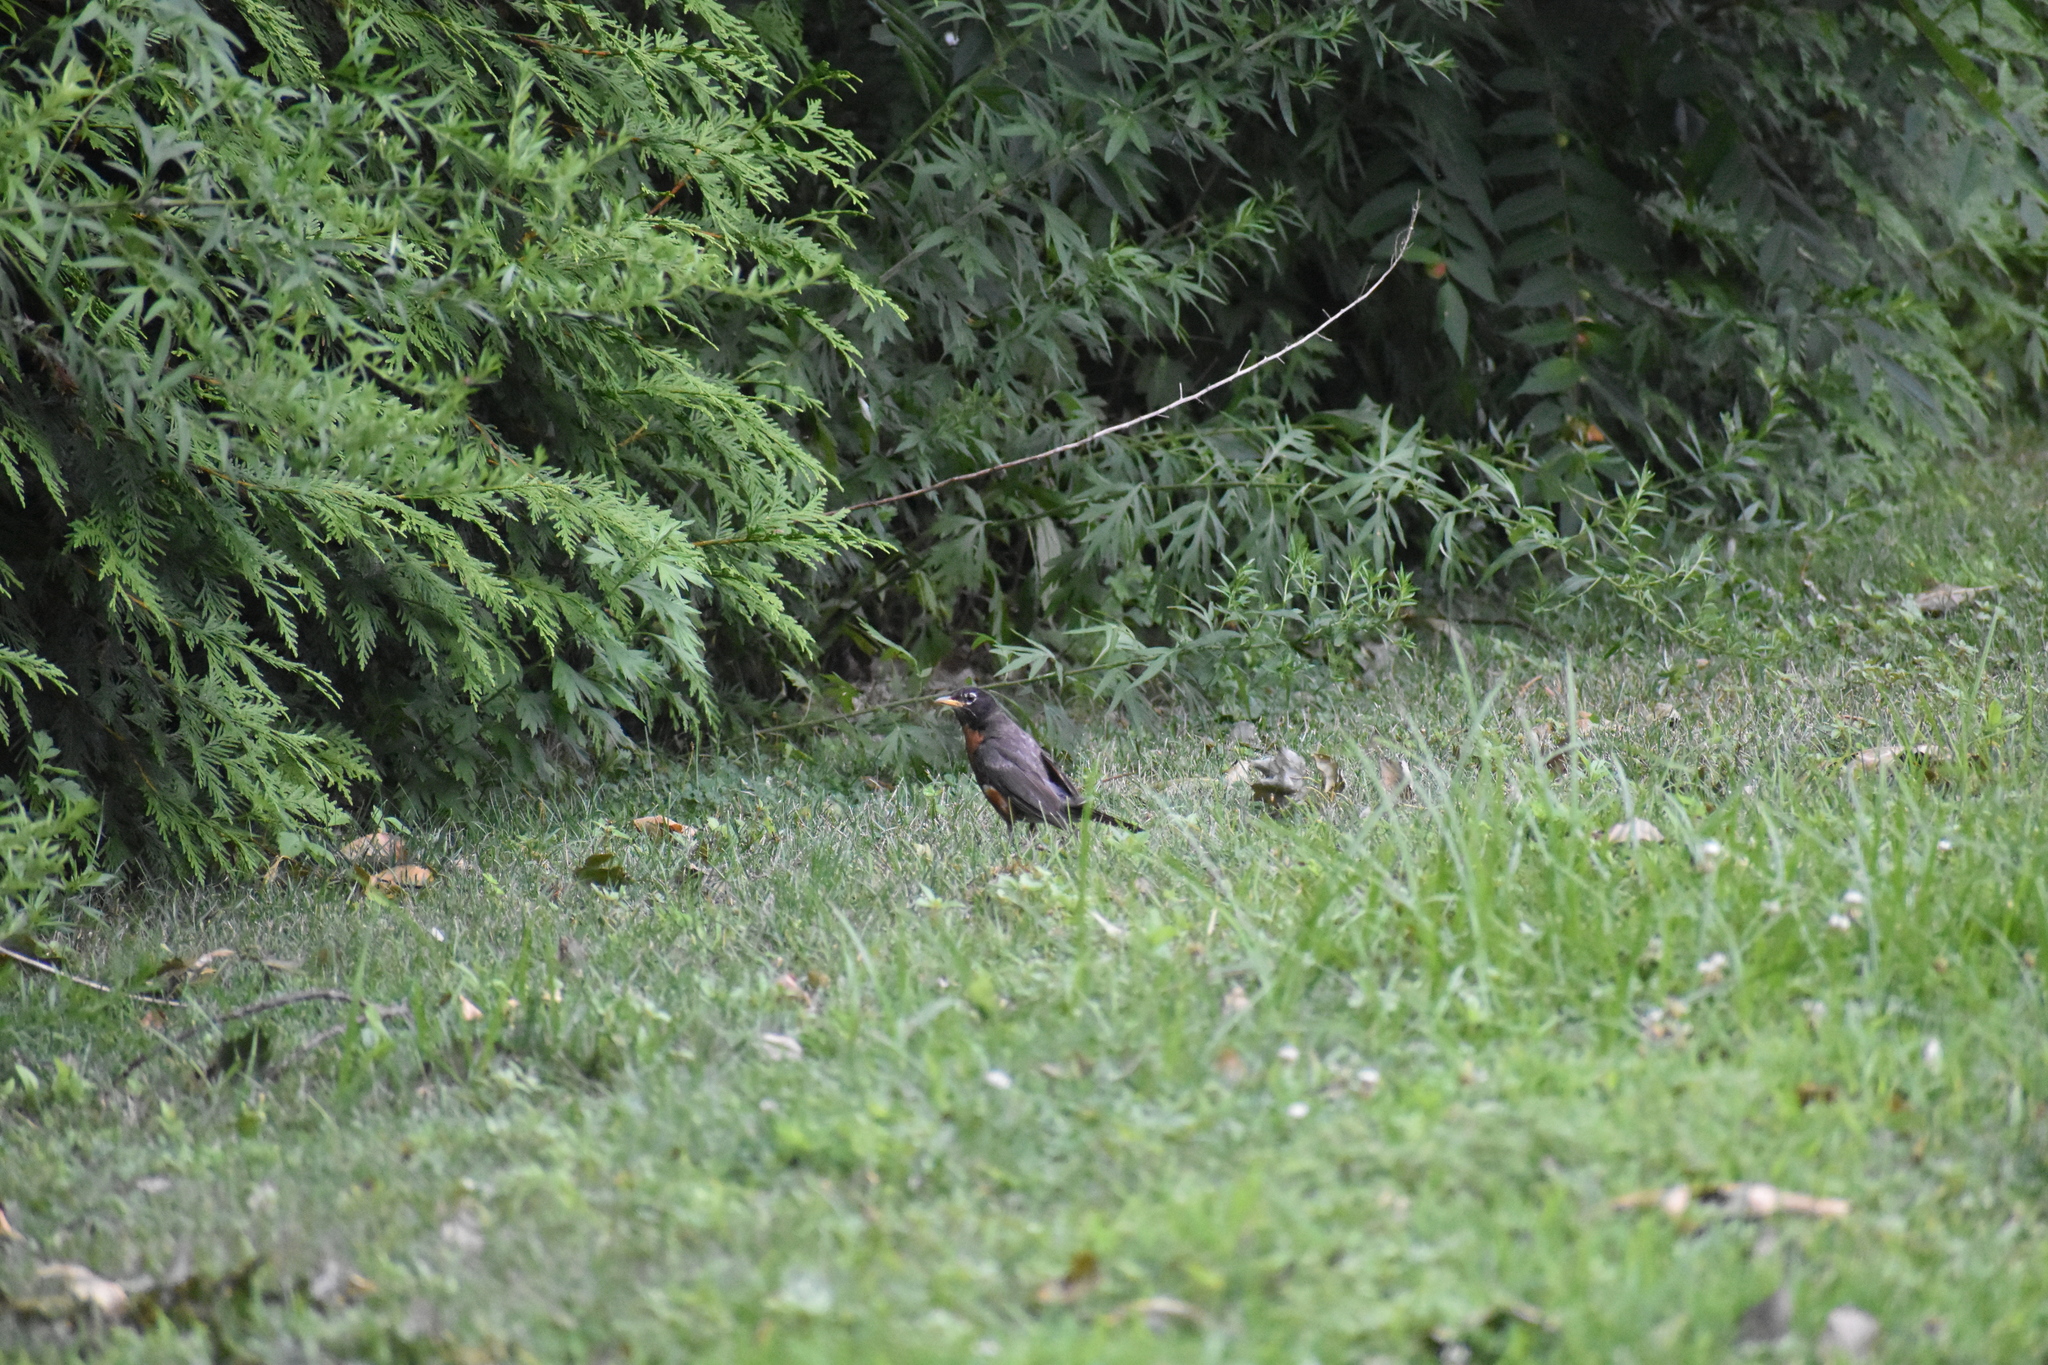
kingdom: Animalia
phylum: Chordata
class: Aves
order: Passeriformes
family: Turdidae
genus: Turdus
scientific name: Turdus migratorius
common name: American robin
